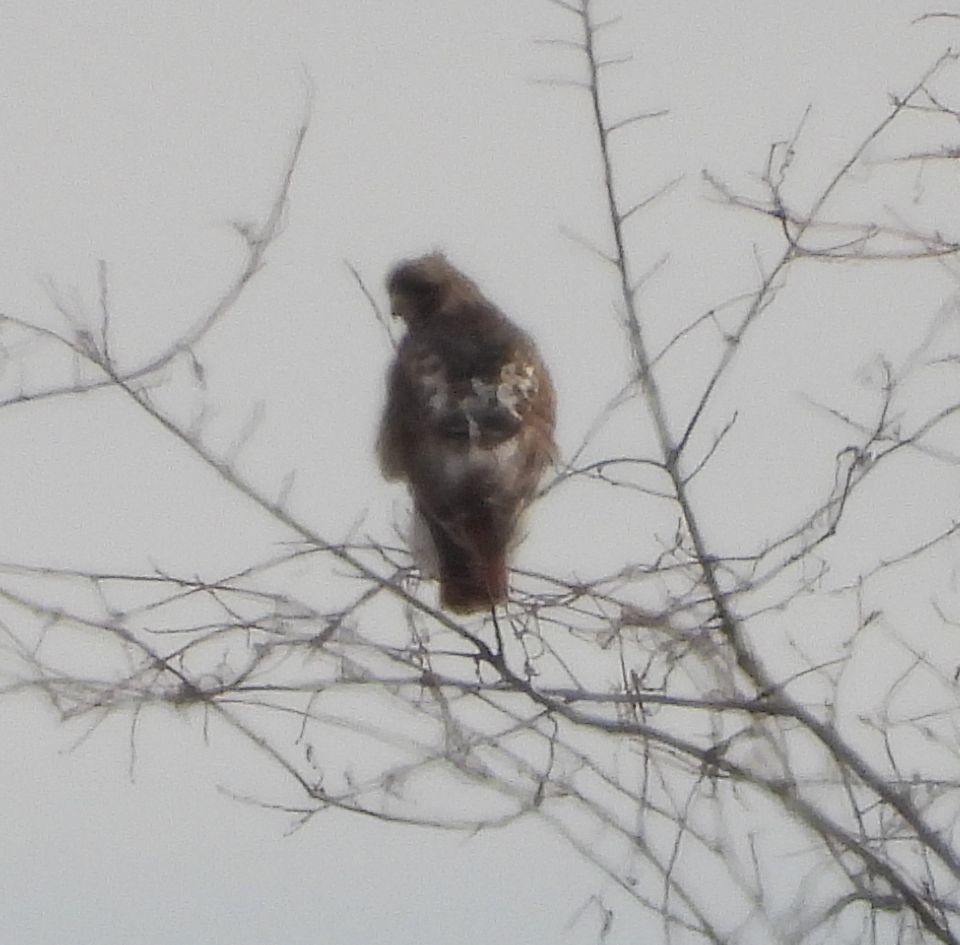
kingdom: Animalia
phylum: Chordata
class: Aves
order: Accipitriformes
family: Accipitridae
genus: Buteo
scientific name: Buteo jamaicensis
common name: Red-tailed hawk
